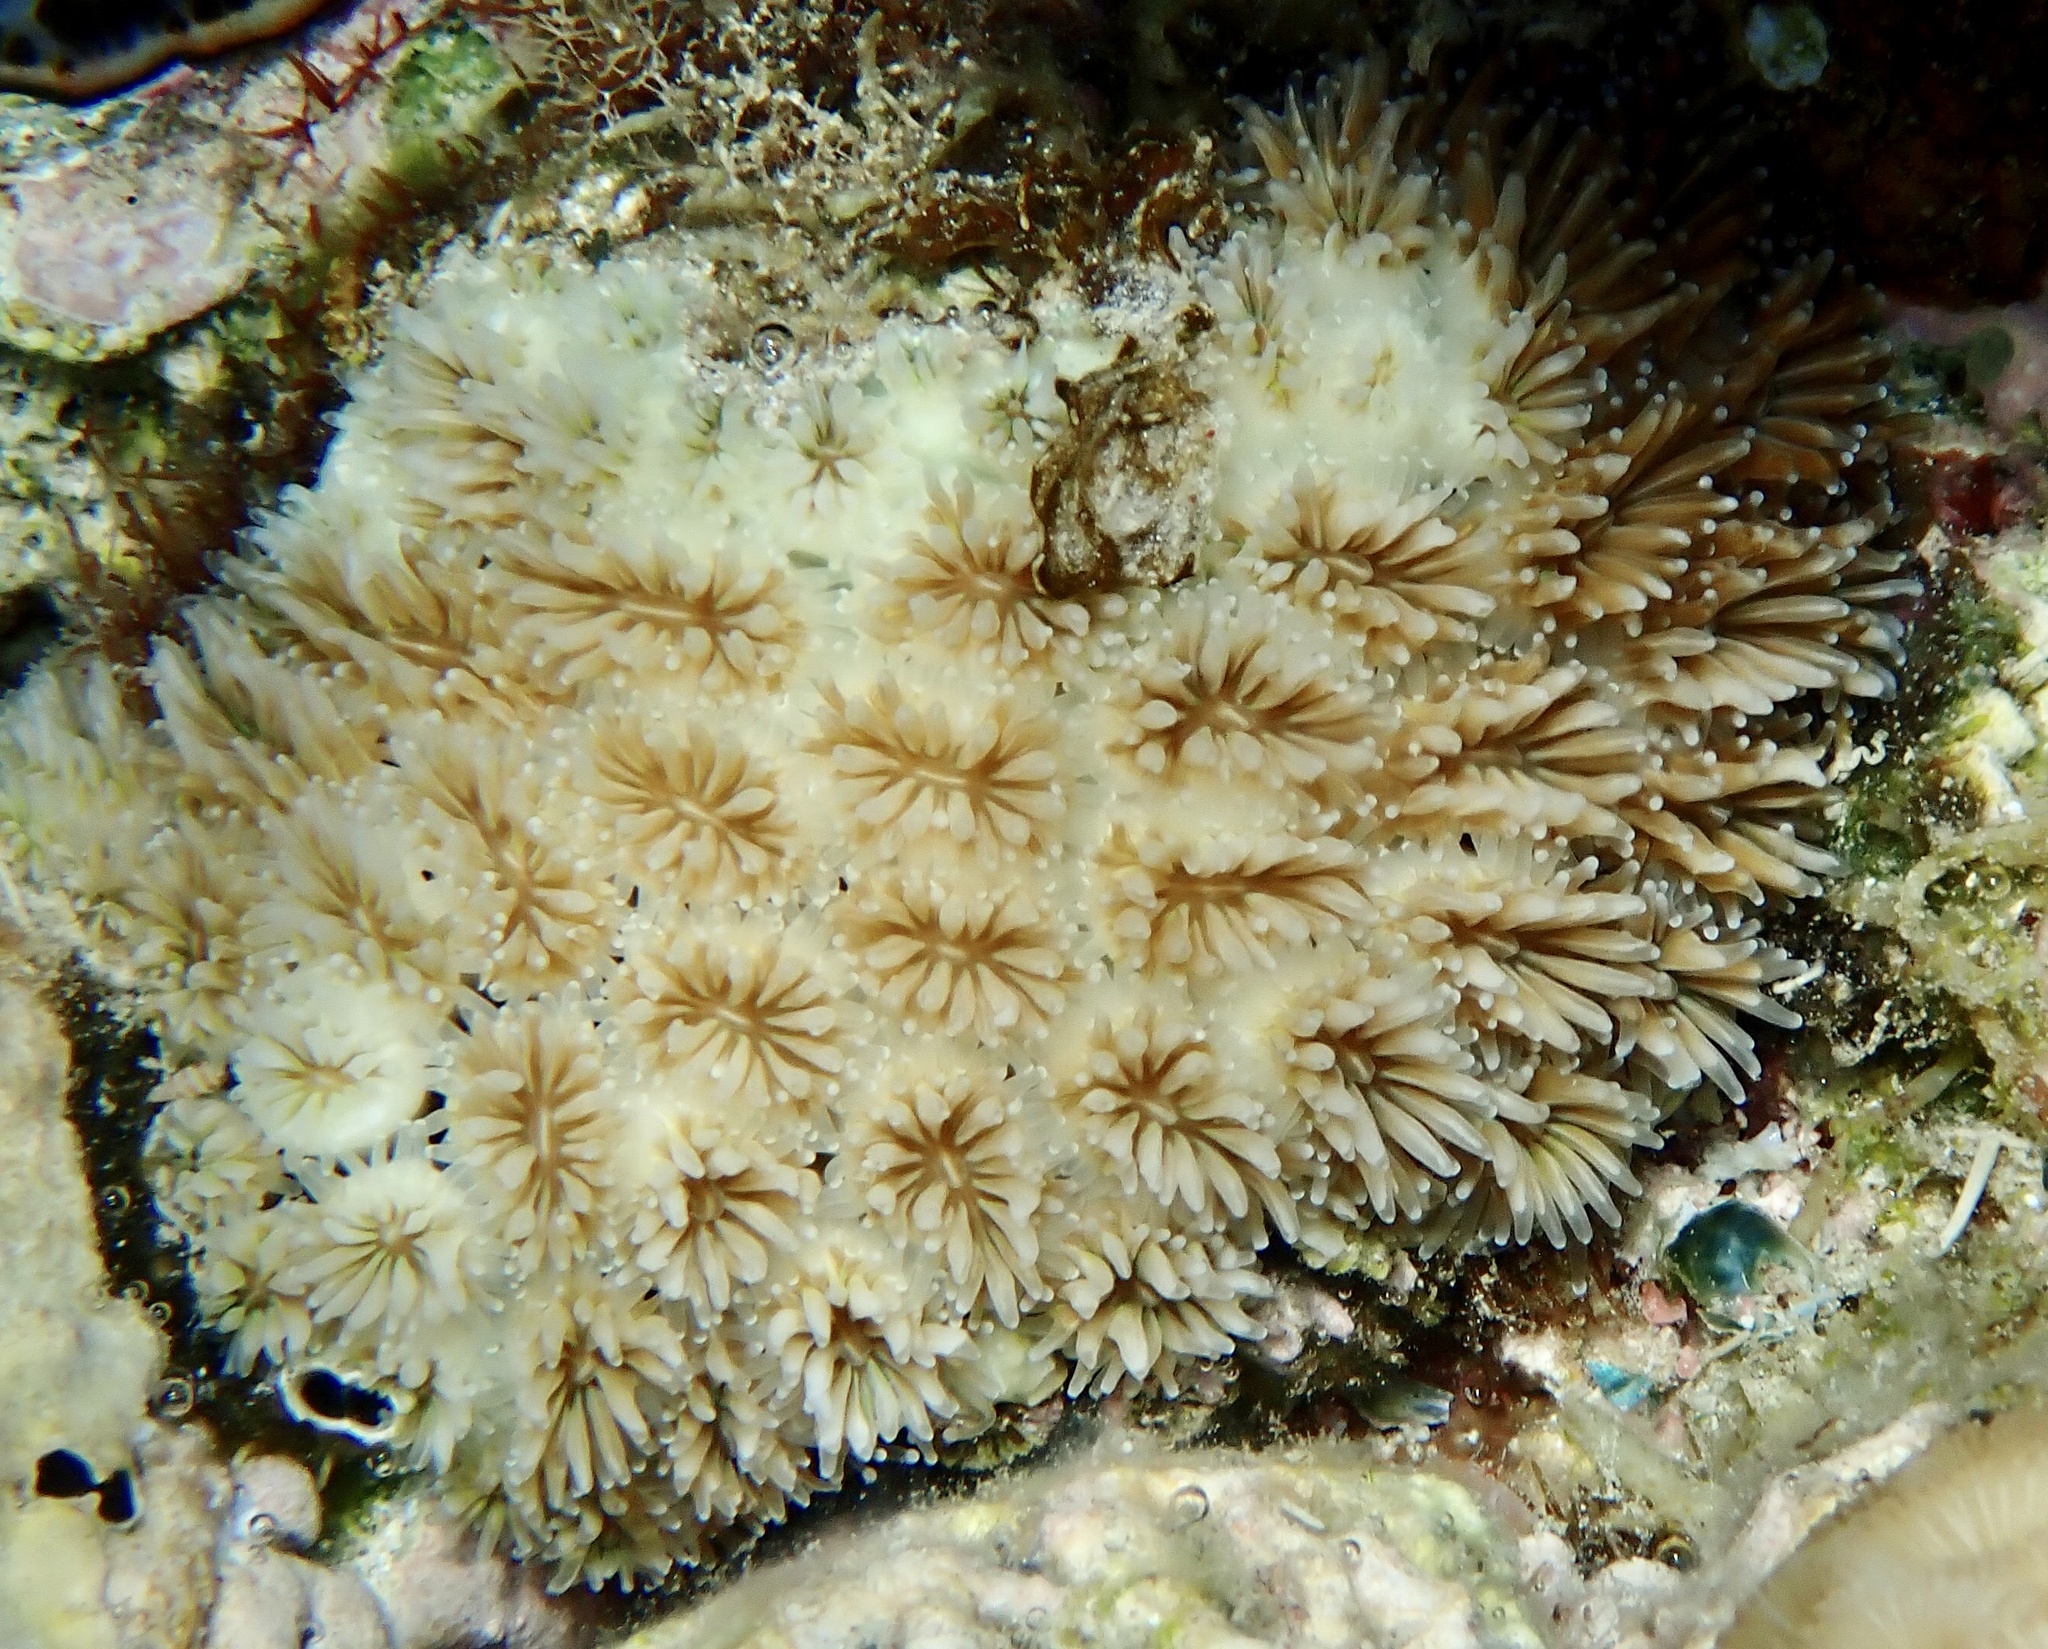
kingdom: Animalia
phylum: Cnidaria
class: Anthozoa
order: Scleractinia
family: Euphylliidae
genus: Galaxea
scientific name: Galaxea fascicularis
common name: Octopus coral
